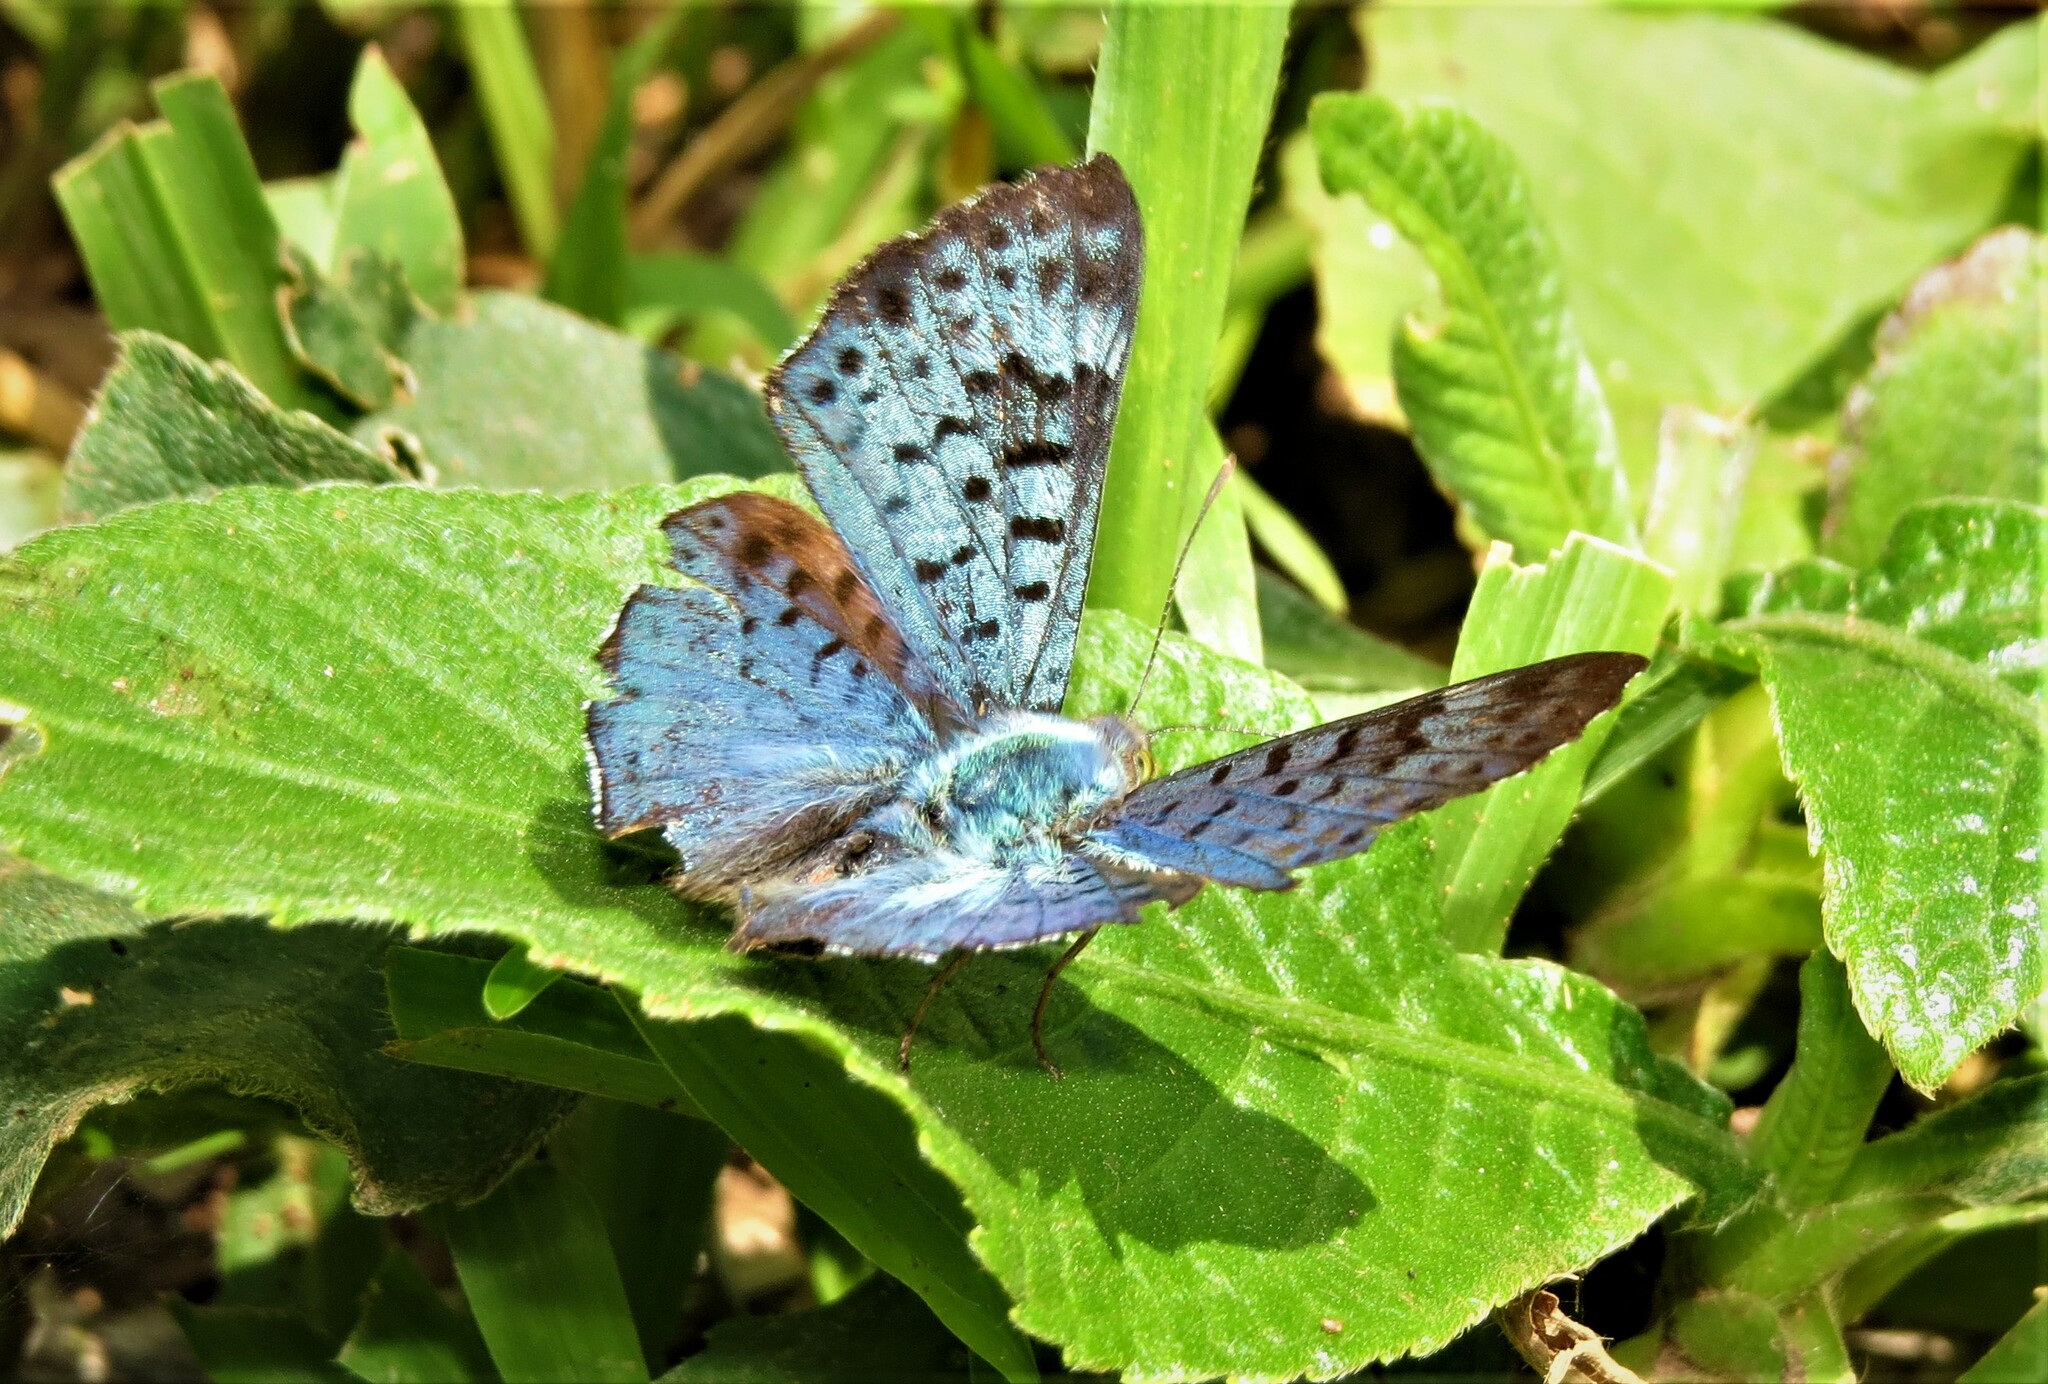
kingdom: Animalia
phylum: Arthropoda
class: Insecta
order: Lepidoptera
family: Riodinidae
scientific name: Riodinidae
